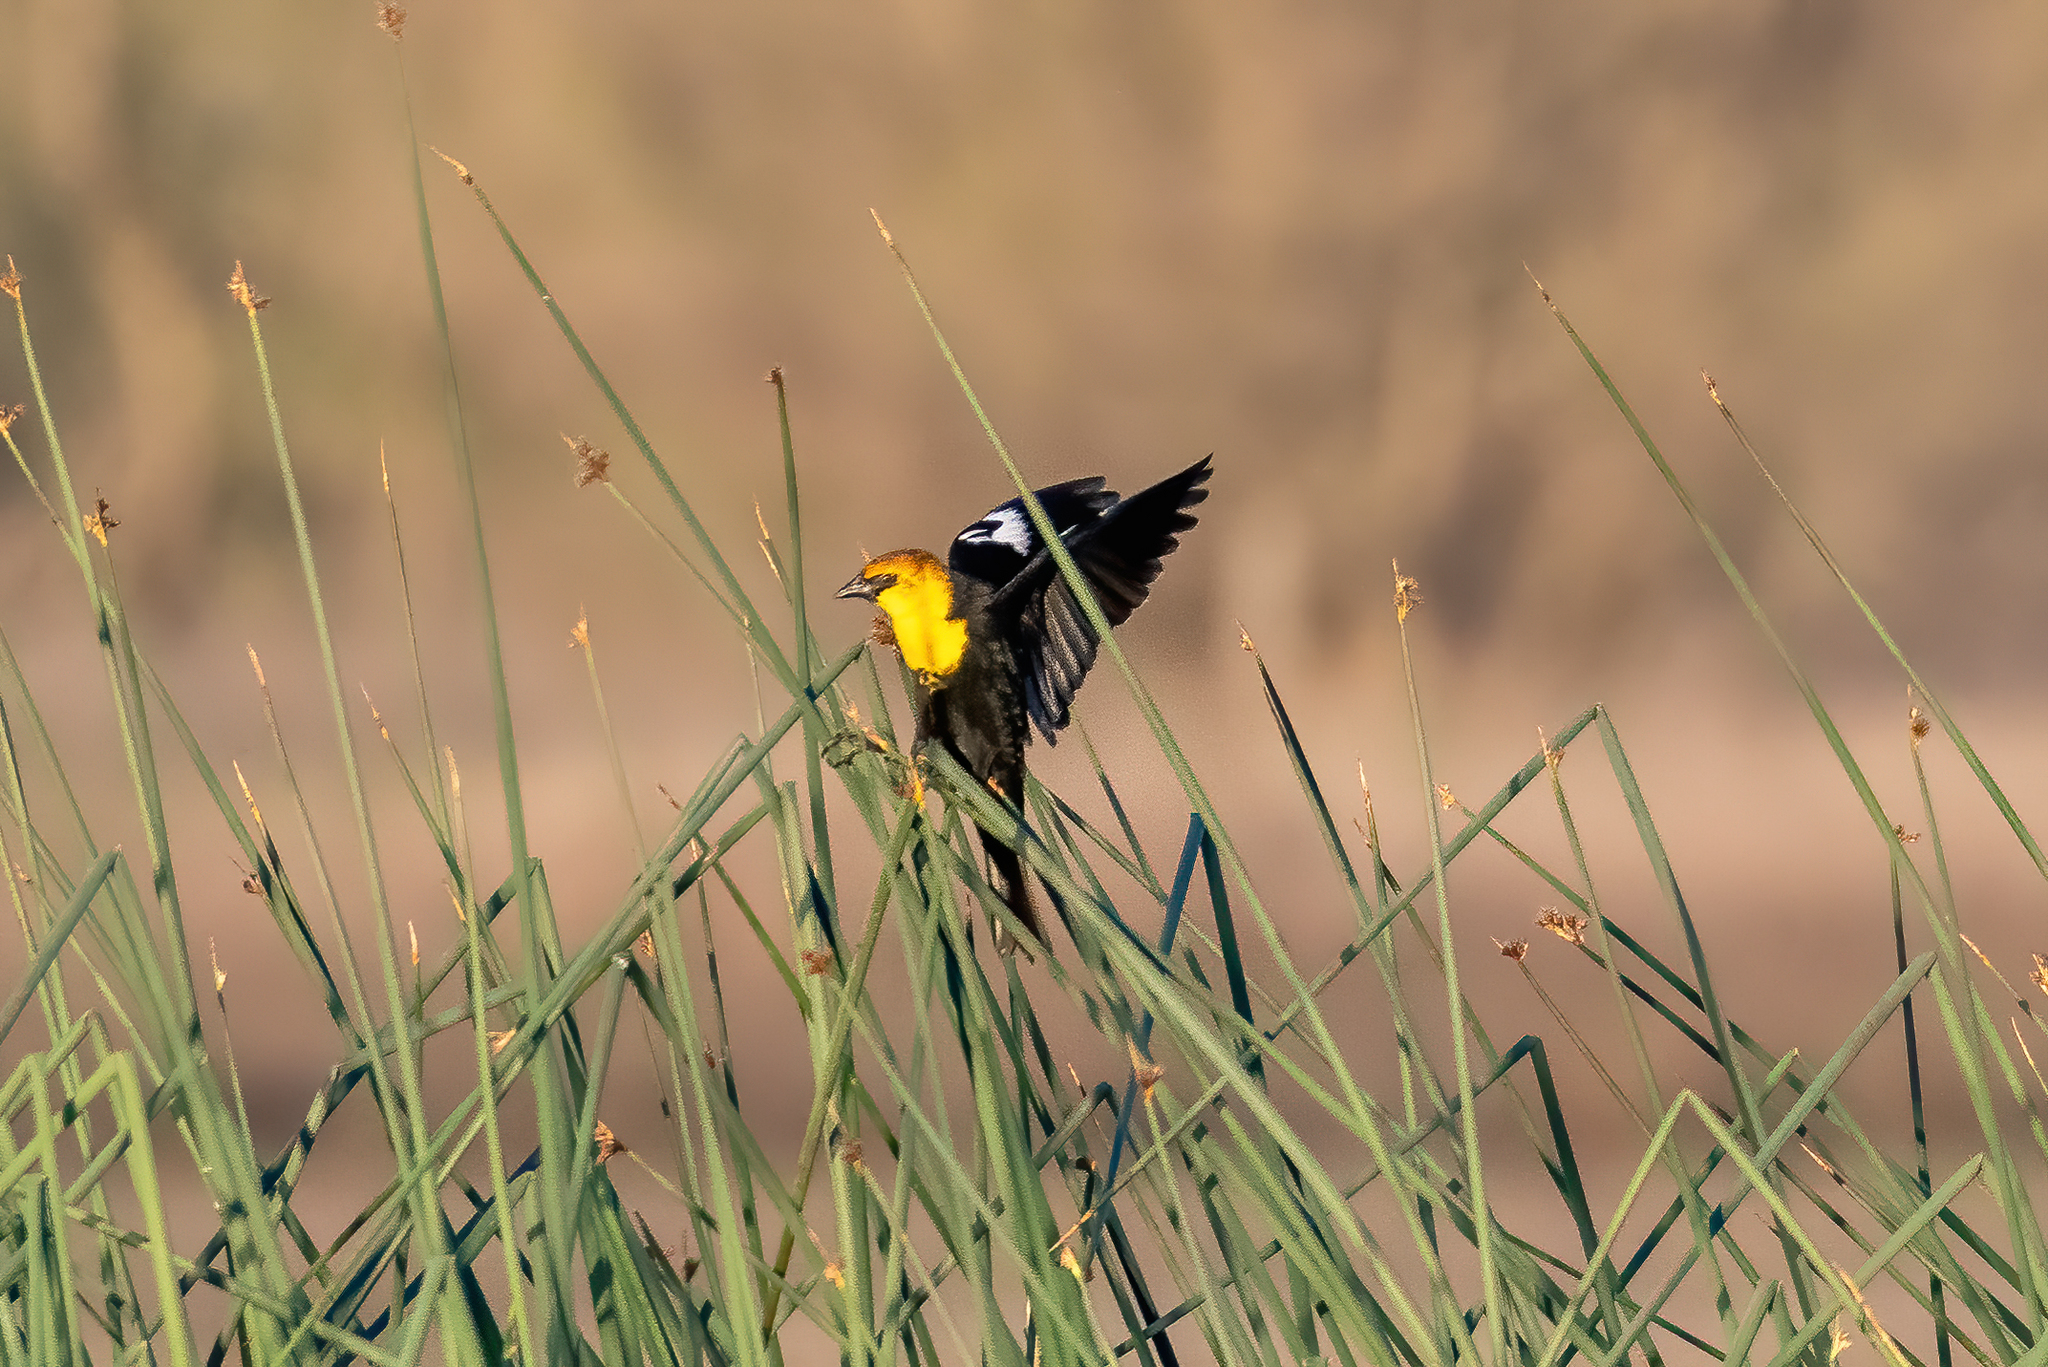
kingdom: Animalia
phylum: Chordata
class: Aves
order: Passeriformes
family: Icteridae
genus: Xanthocephalus
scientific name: Xanthocephalus xanthocephalus
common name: Yellow-headed blackbird
